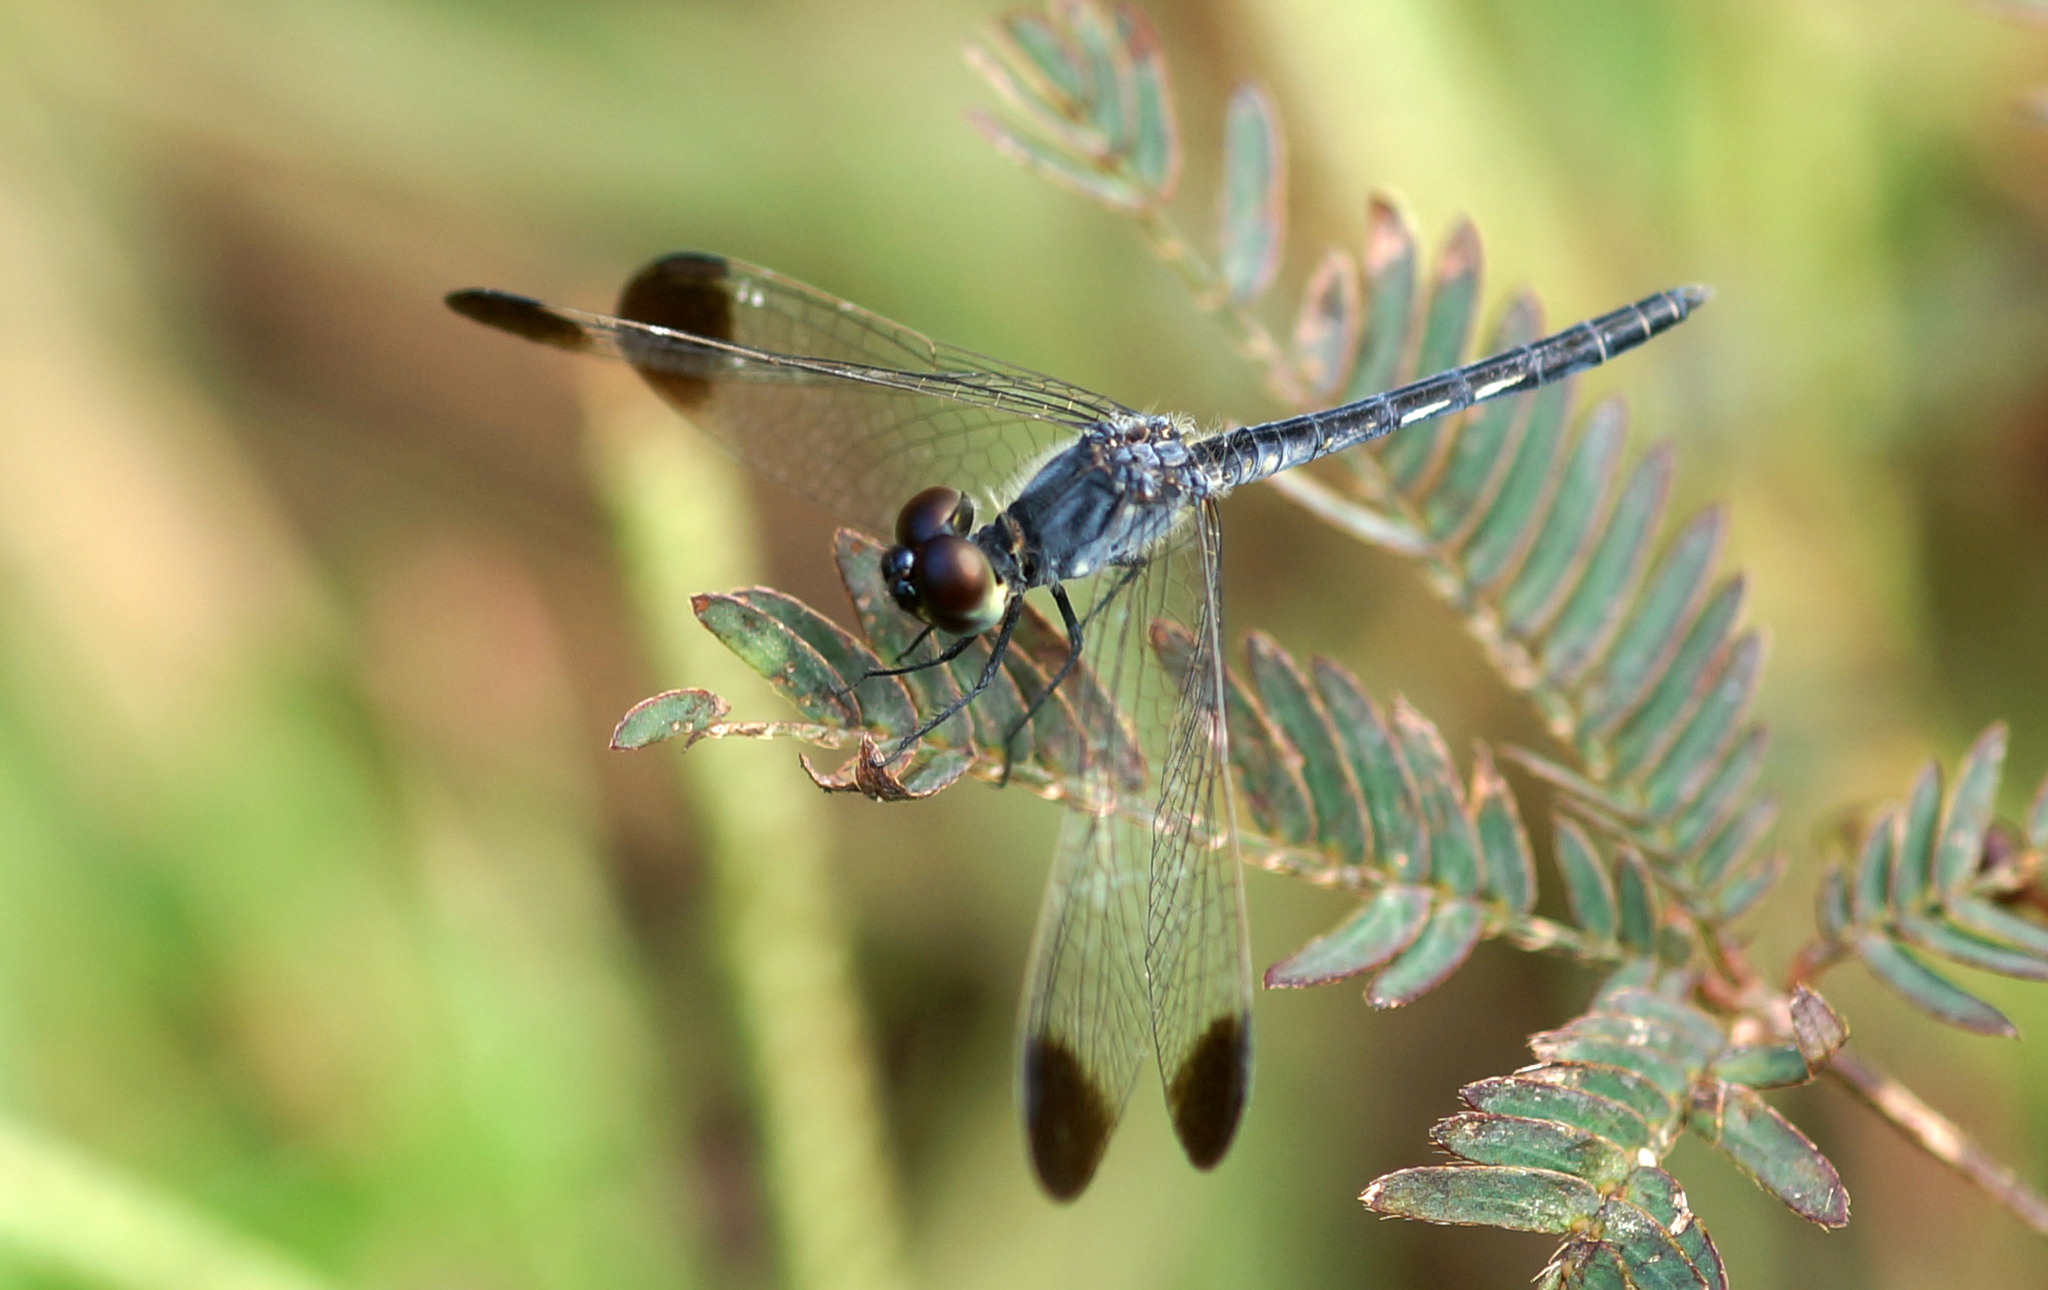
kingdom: Animalia
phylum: Arthropoda
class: Insecta
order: Odonata
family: Libellulidae
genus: Diplacodes
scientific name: Diplacodes nebulosa
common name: Black-tipped percher
